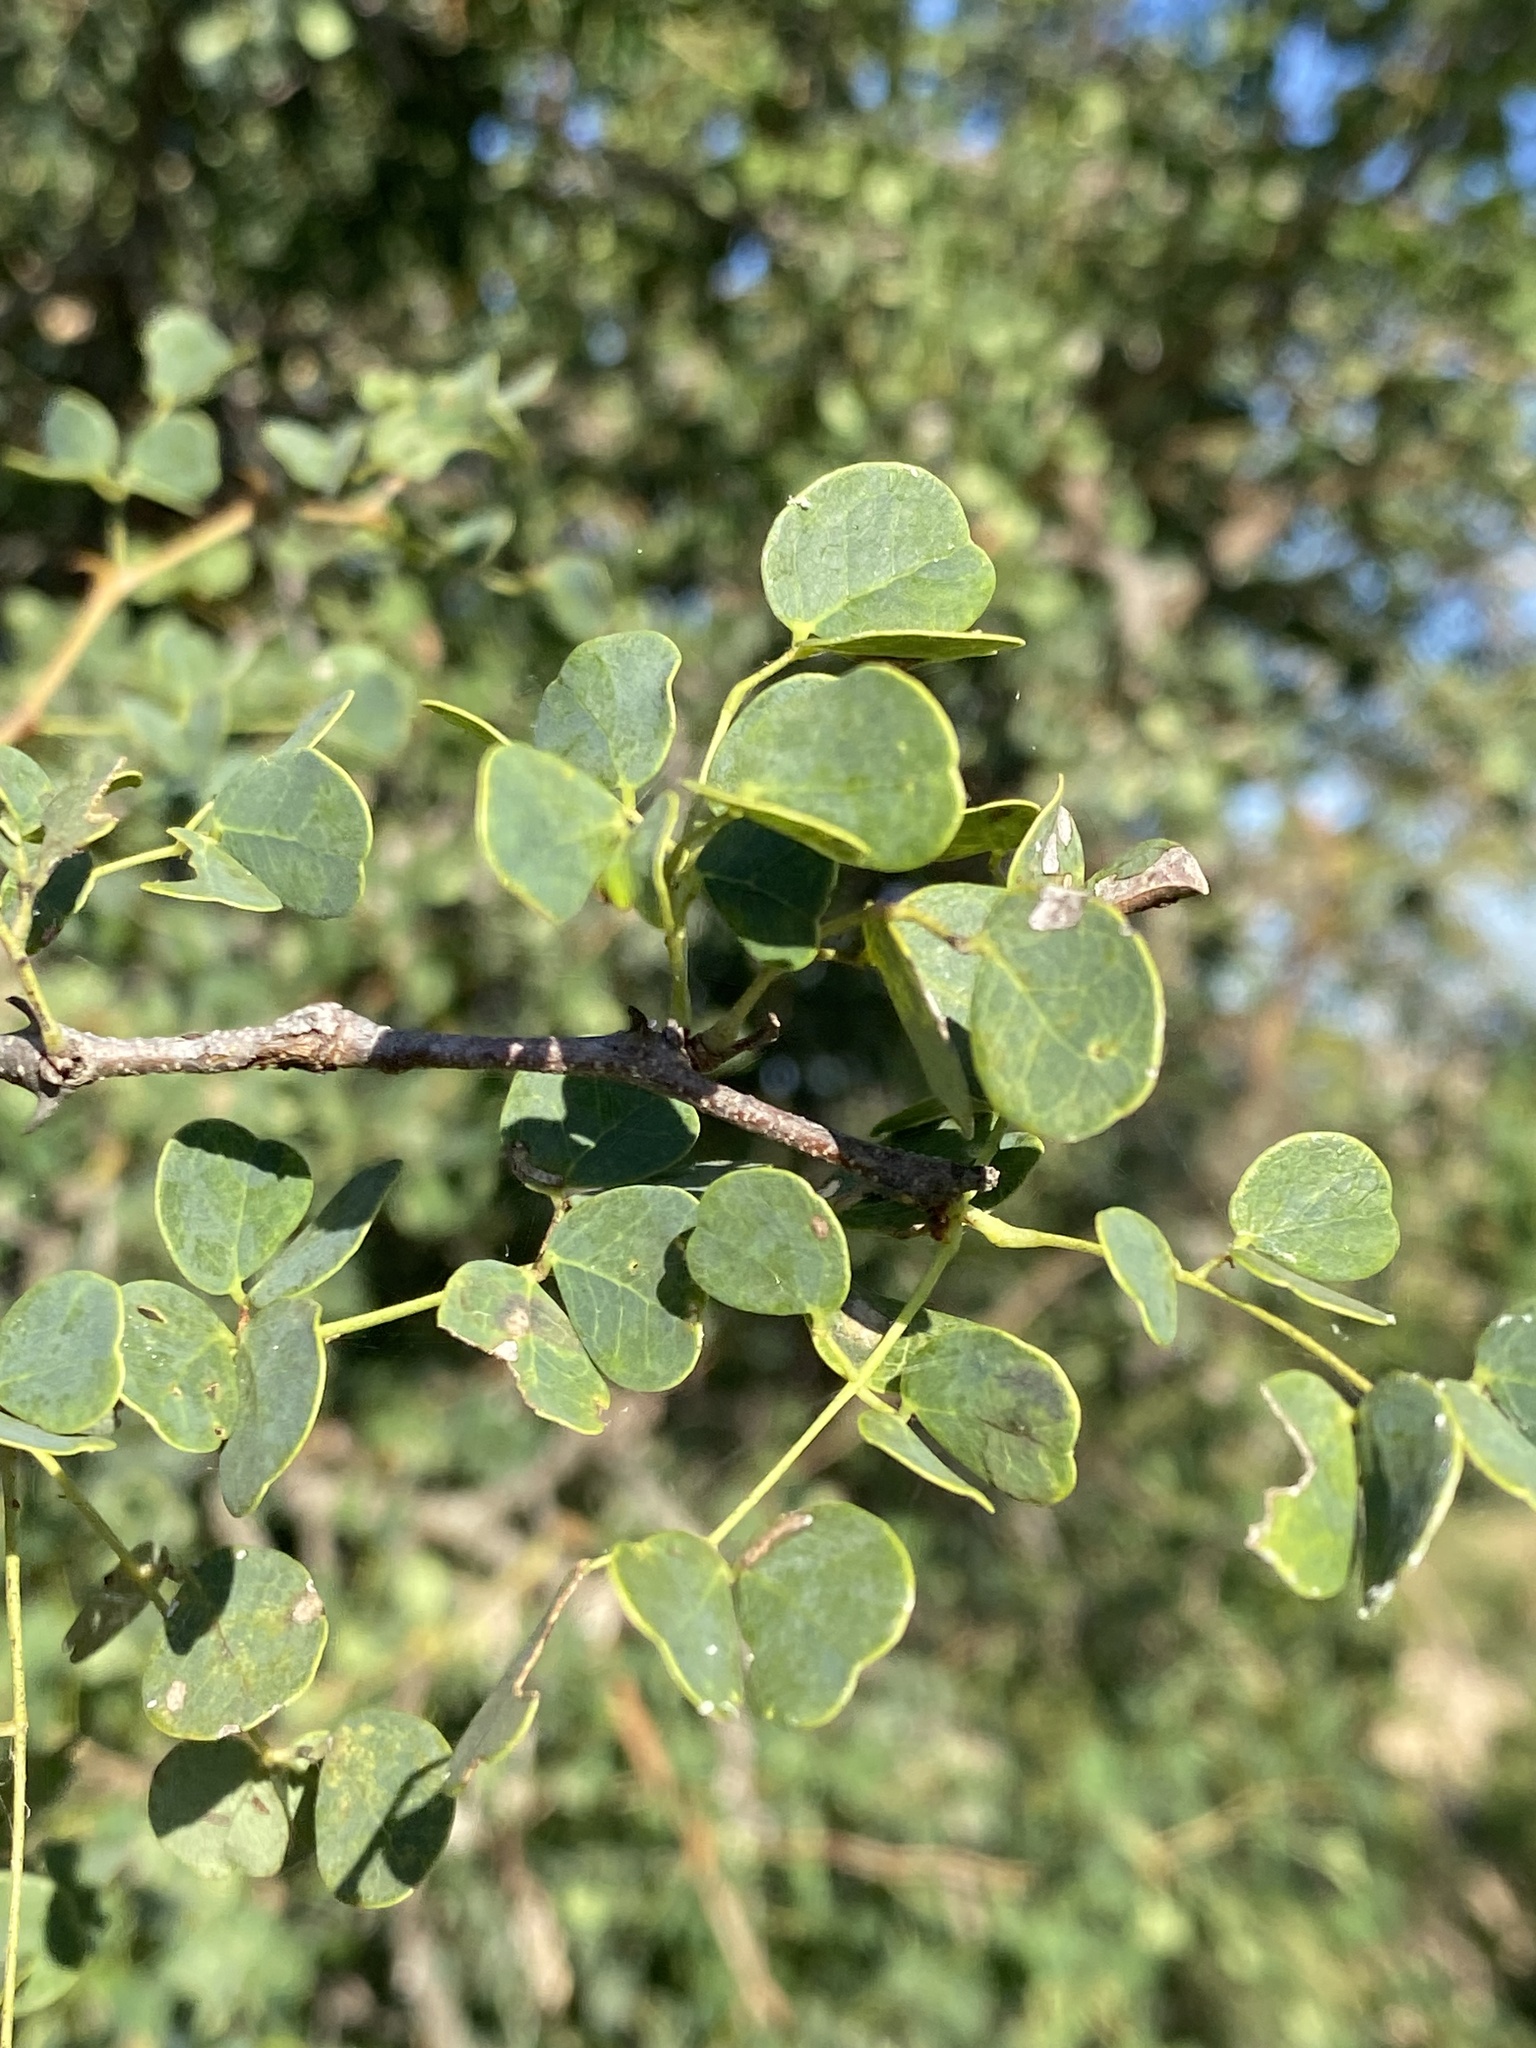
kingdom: Plantae
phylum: Tracheophyta
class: Magnoliopsida
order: Fabales
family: Fabaceae
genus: Senegalia
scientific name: Senegalia nigrescens
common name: Knobthorn
